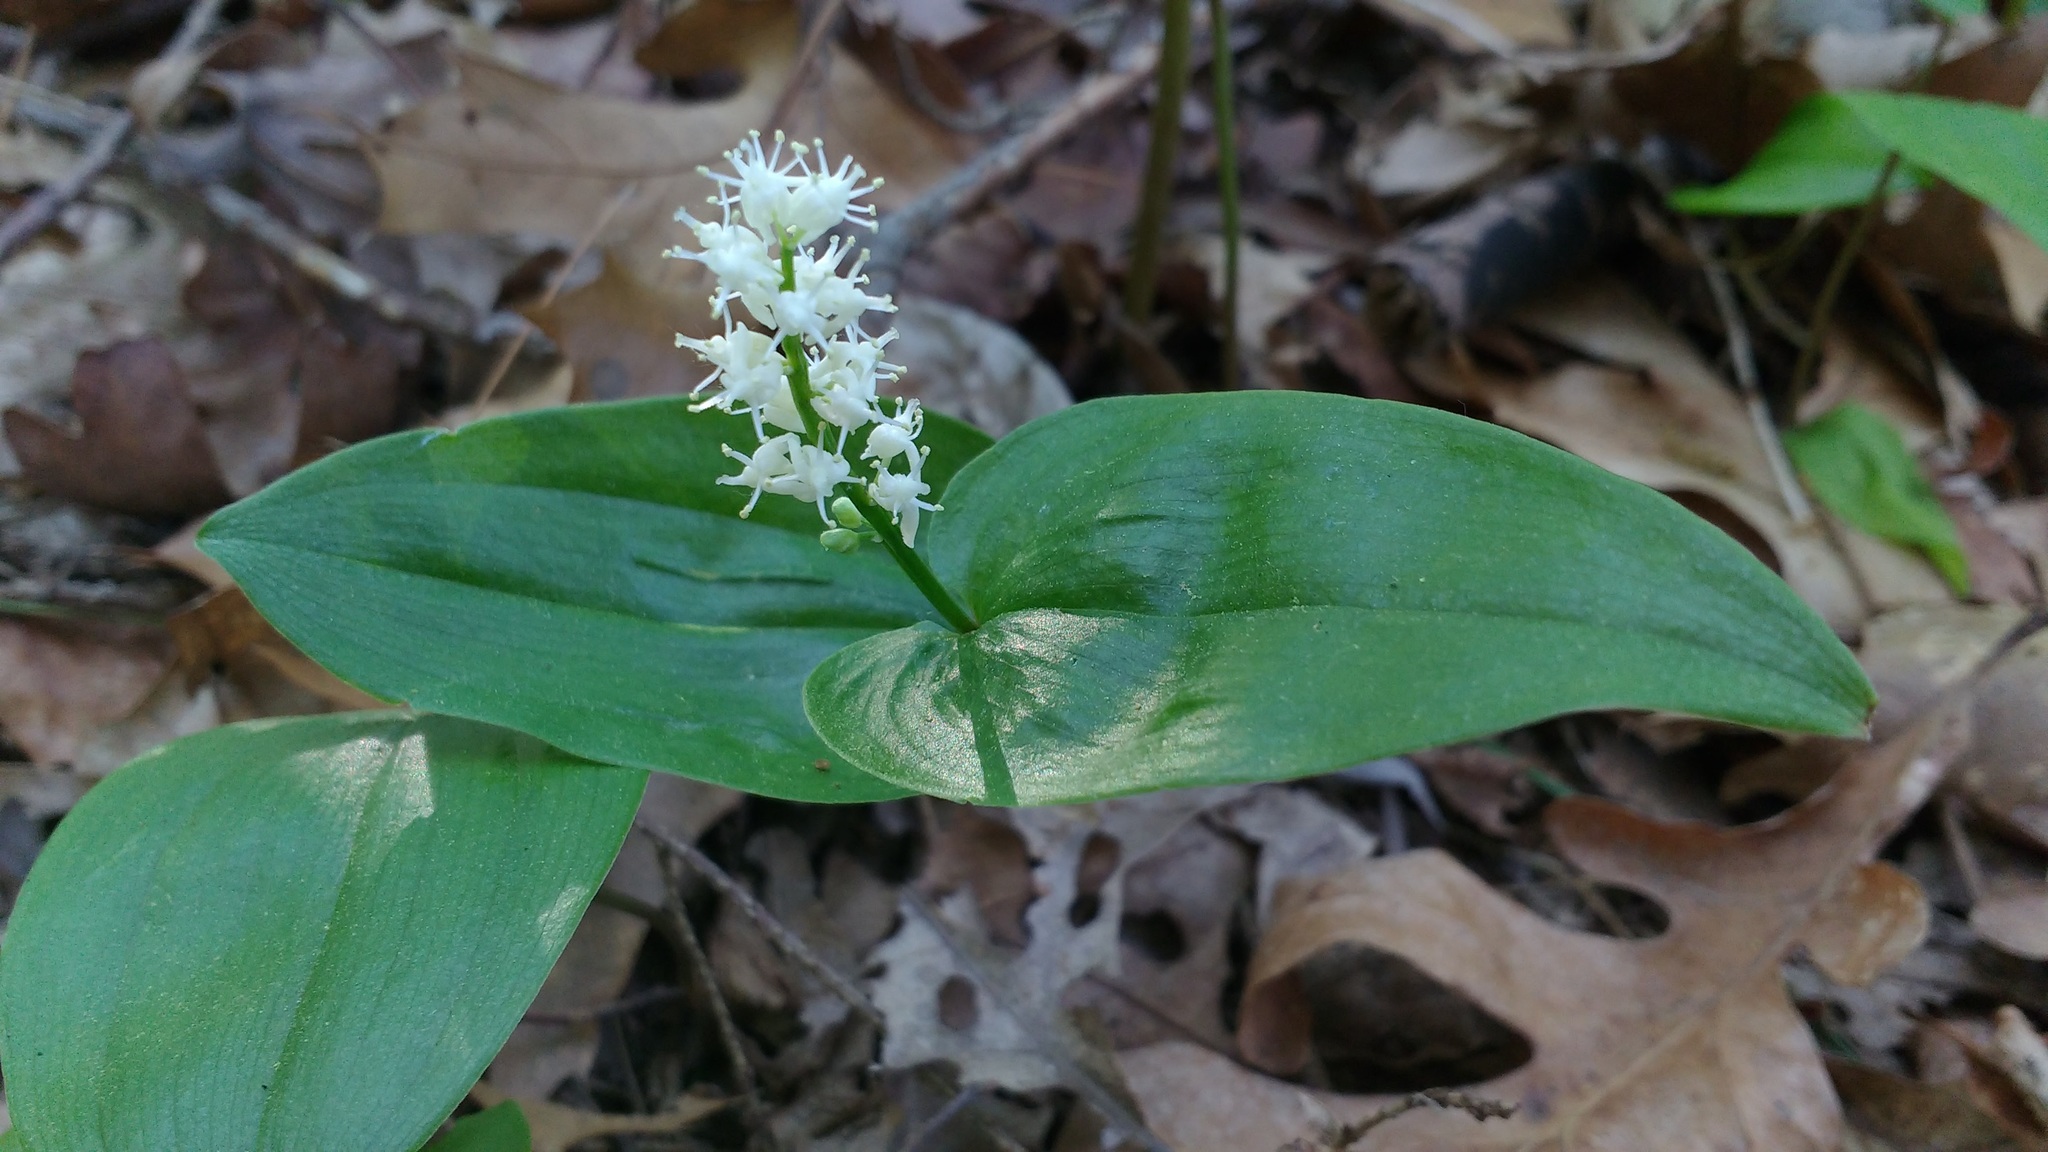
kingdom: Plantae
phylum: Tracheophyta
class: Liliopsida
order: Asparagales
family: Asparagaceae
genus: Maianthemum
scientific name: Maianthemum canadense
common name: False lily-of-the-valley
